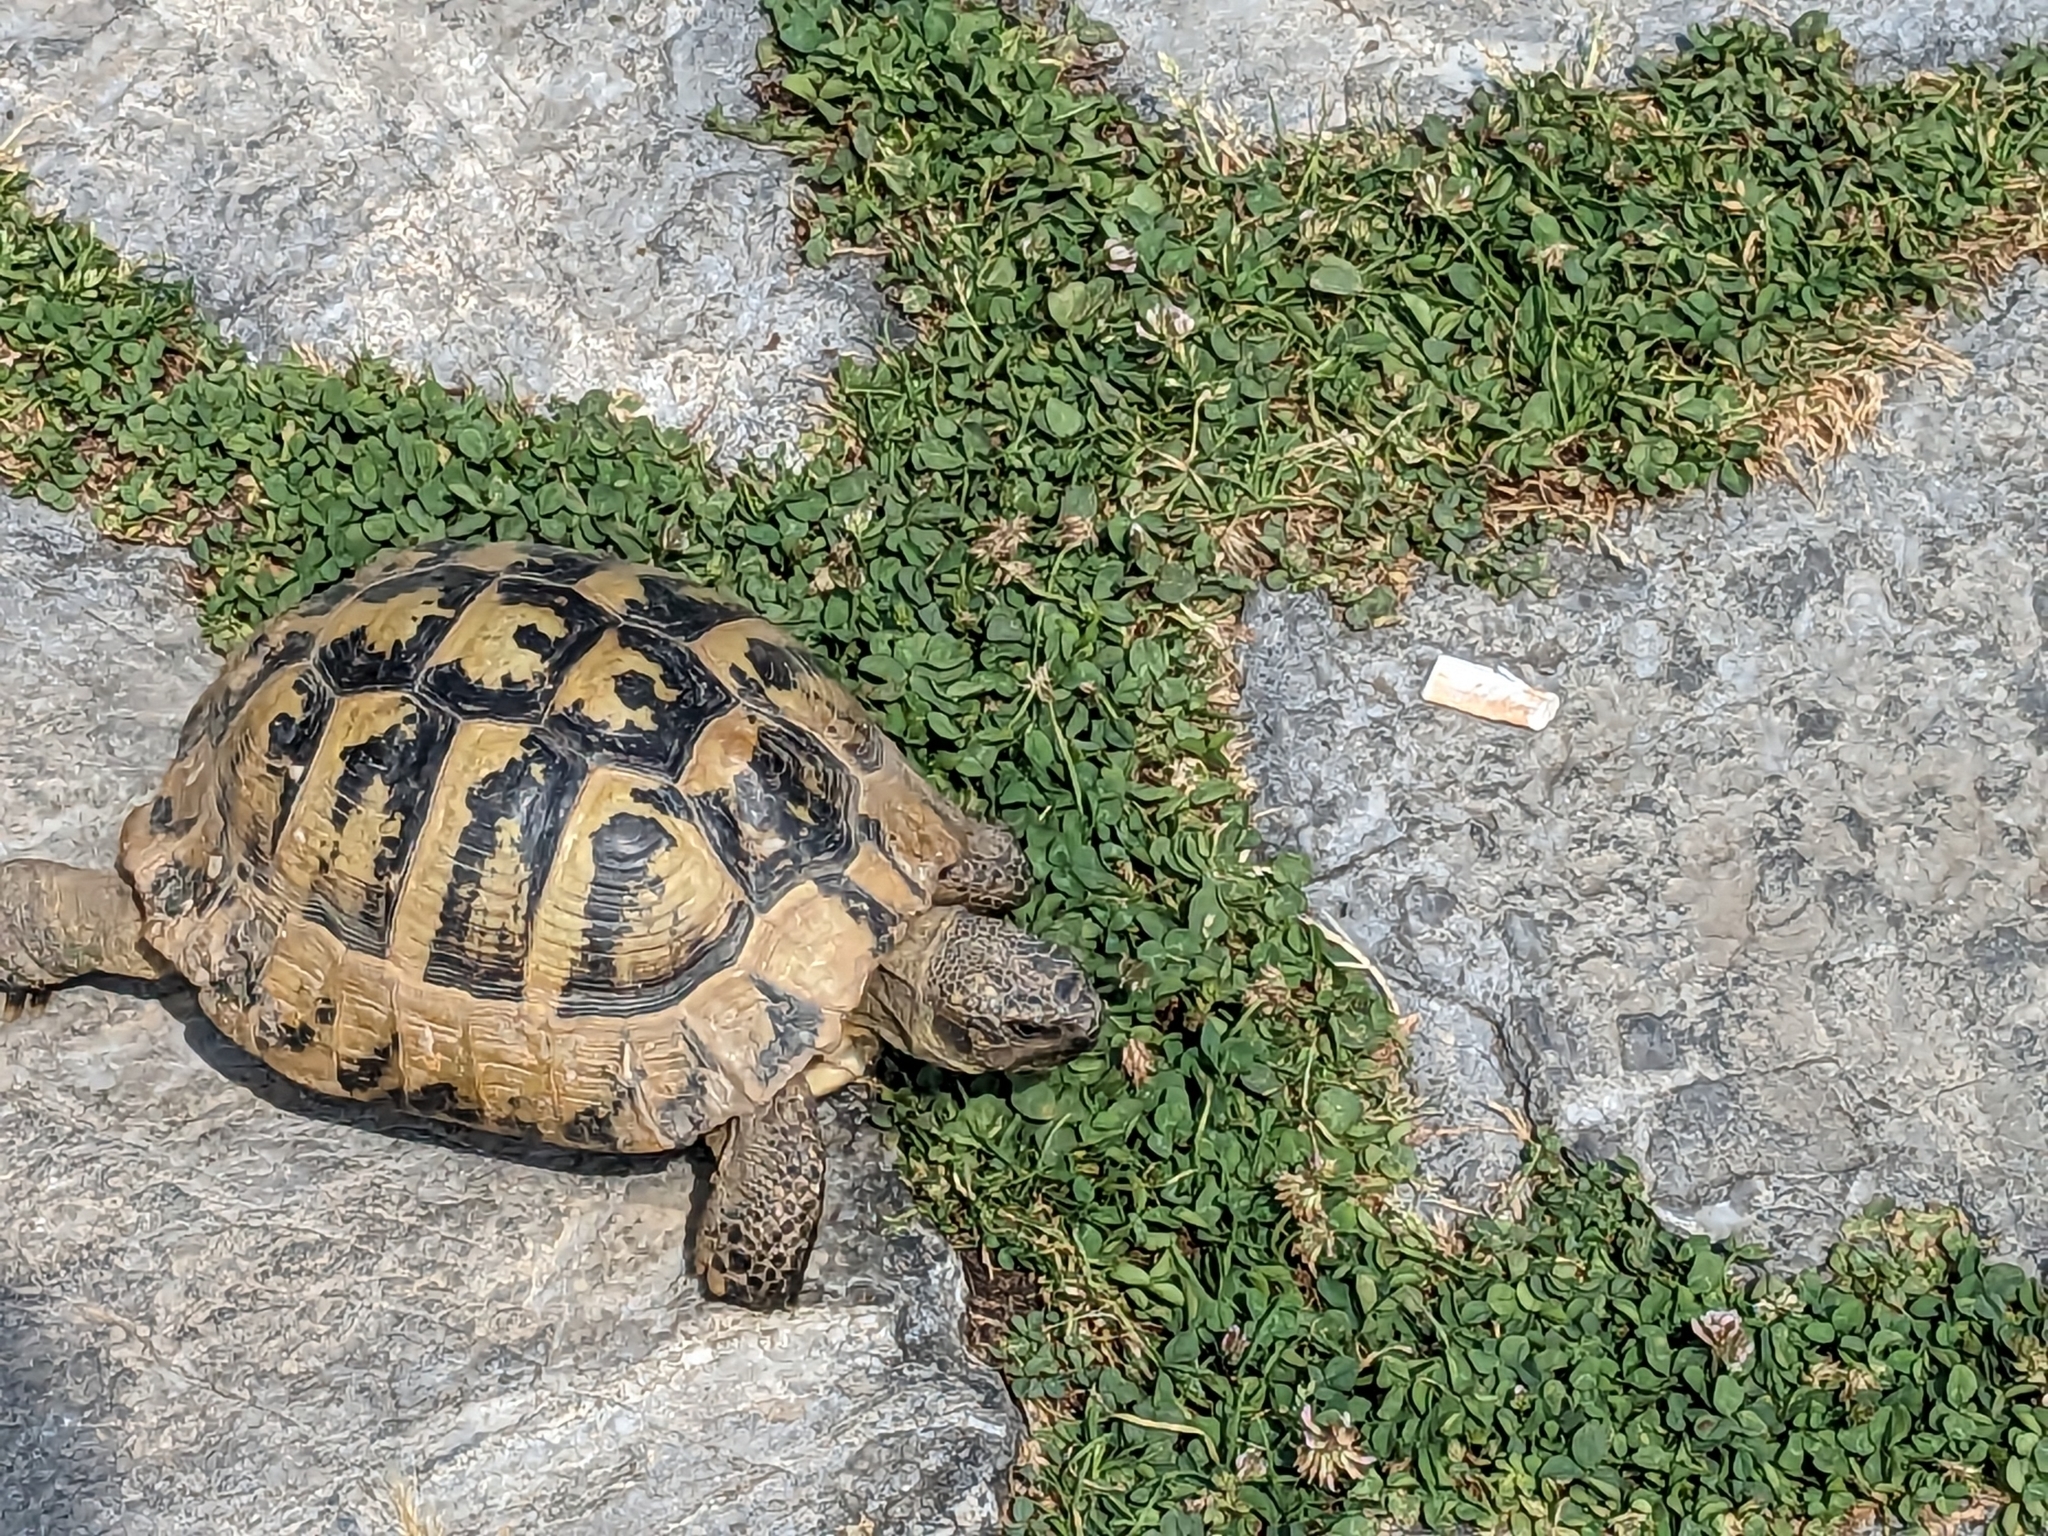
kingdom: Animalia
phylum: Chordata
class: Testudines
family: Testudinidae
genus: Testudo
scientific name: Testudo hermanni
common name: Hermann's tortoise
